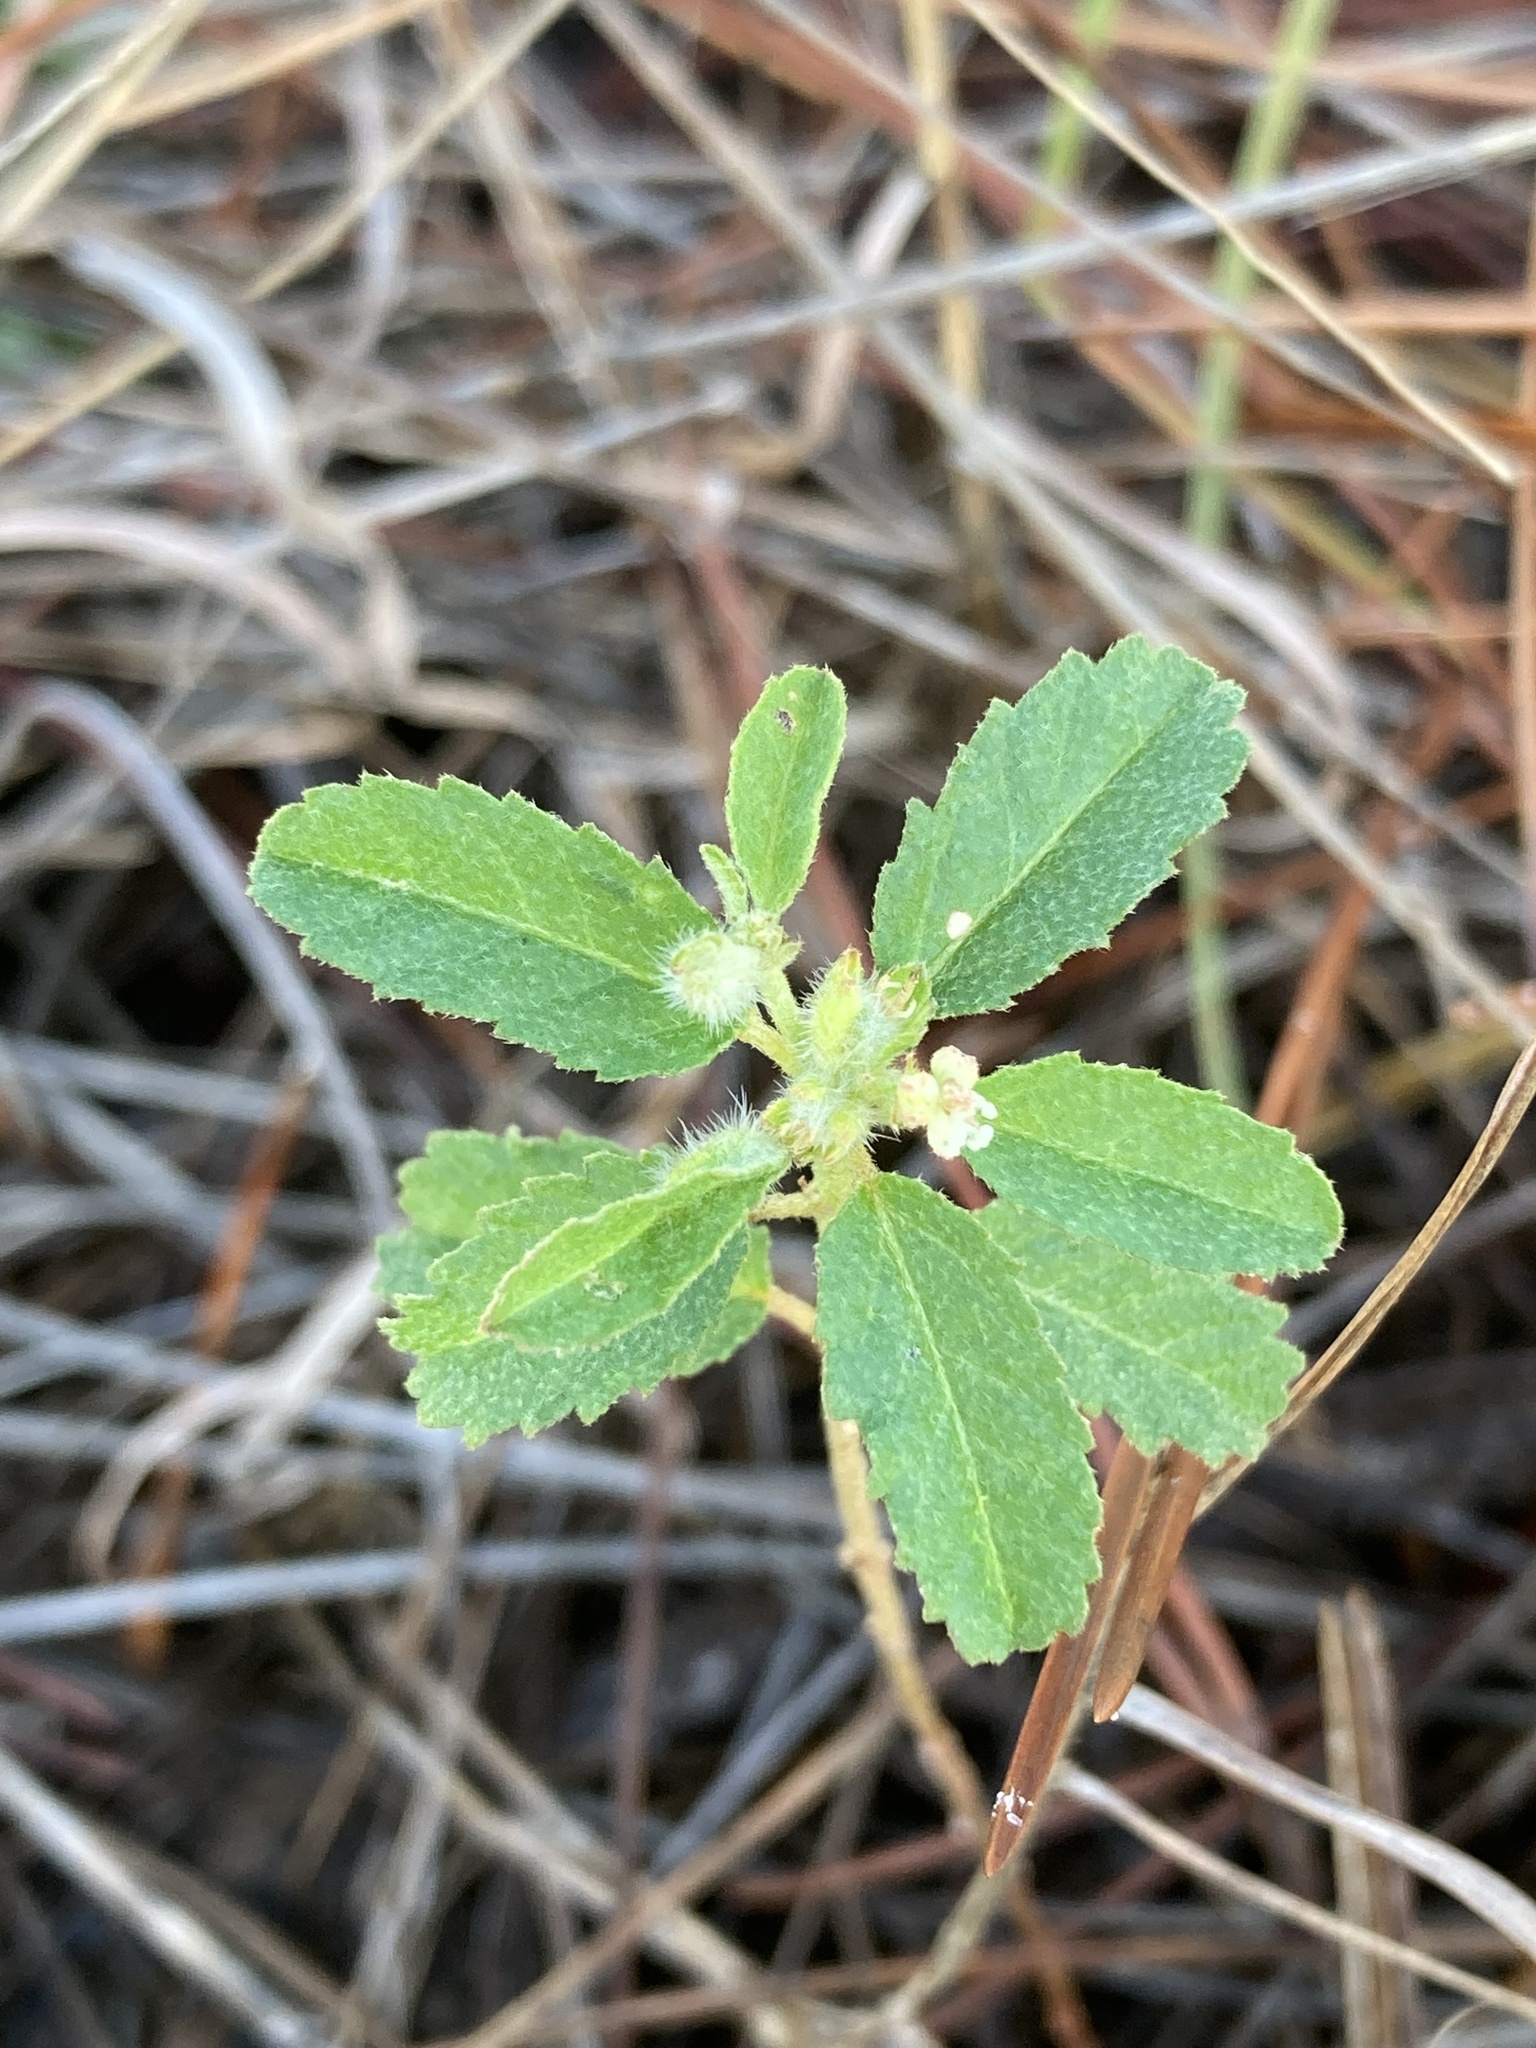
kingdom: Plantae
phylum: Tracheophyta
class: Magnoliopsida
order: Malpighiales
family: Euphorbiaceae
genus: Croton
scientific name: Croton glandulosus
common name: Tropic croton
